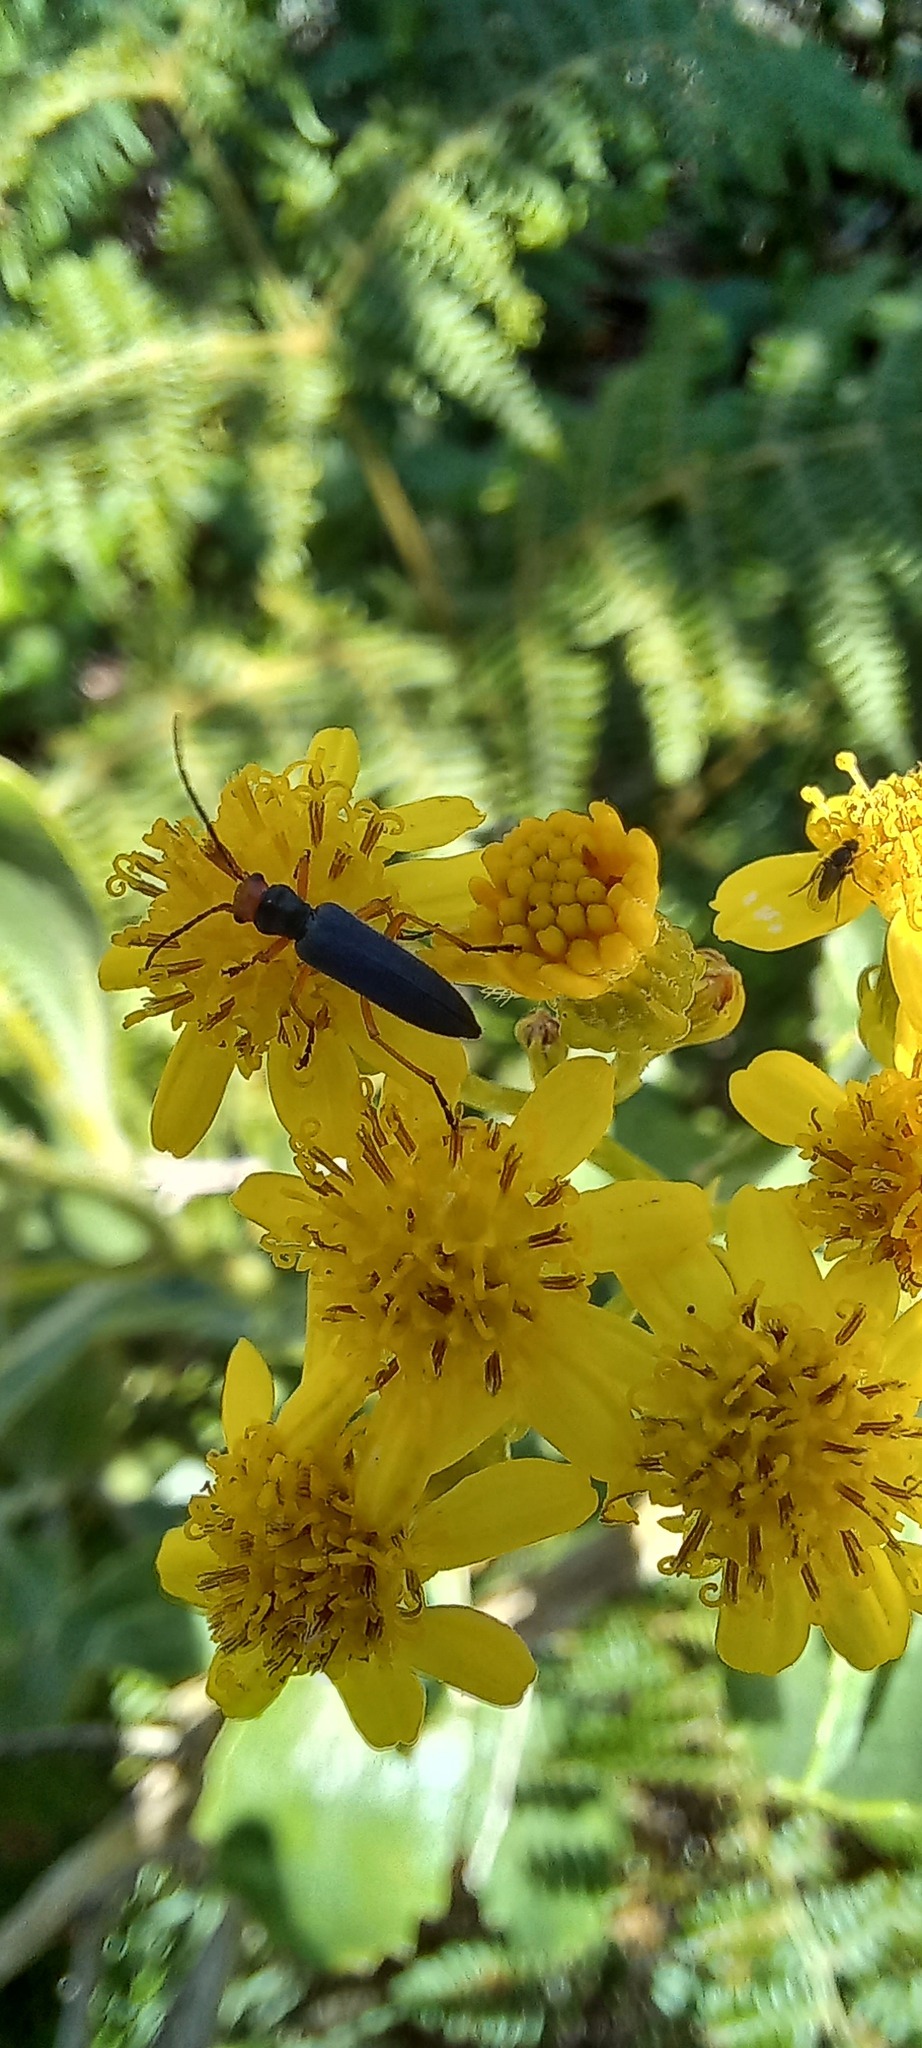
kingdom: Animalia
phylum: Arthropoda
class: Insecta
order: Coleoptera
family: Oedemeridae
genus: Melananthia
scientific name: Melananthia
